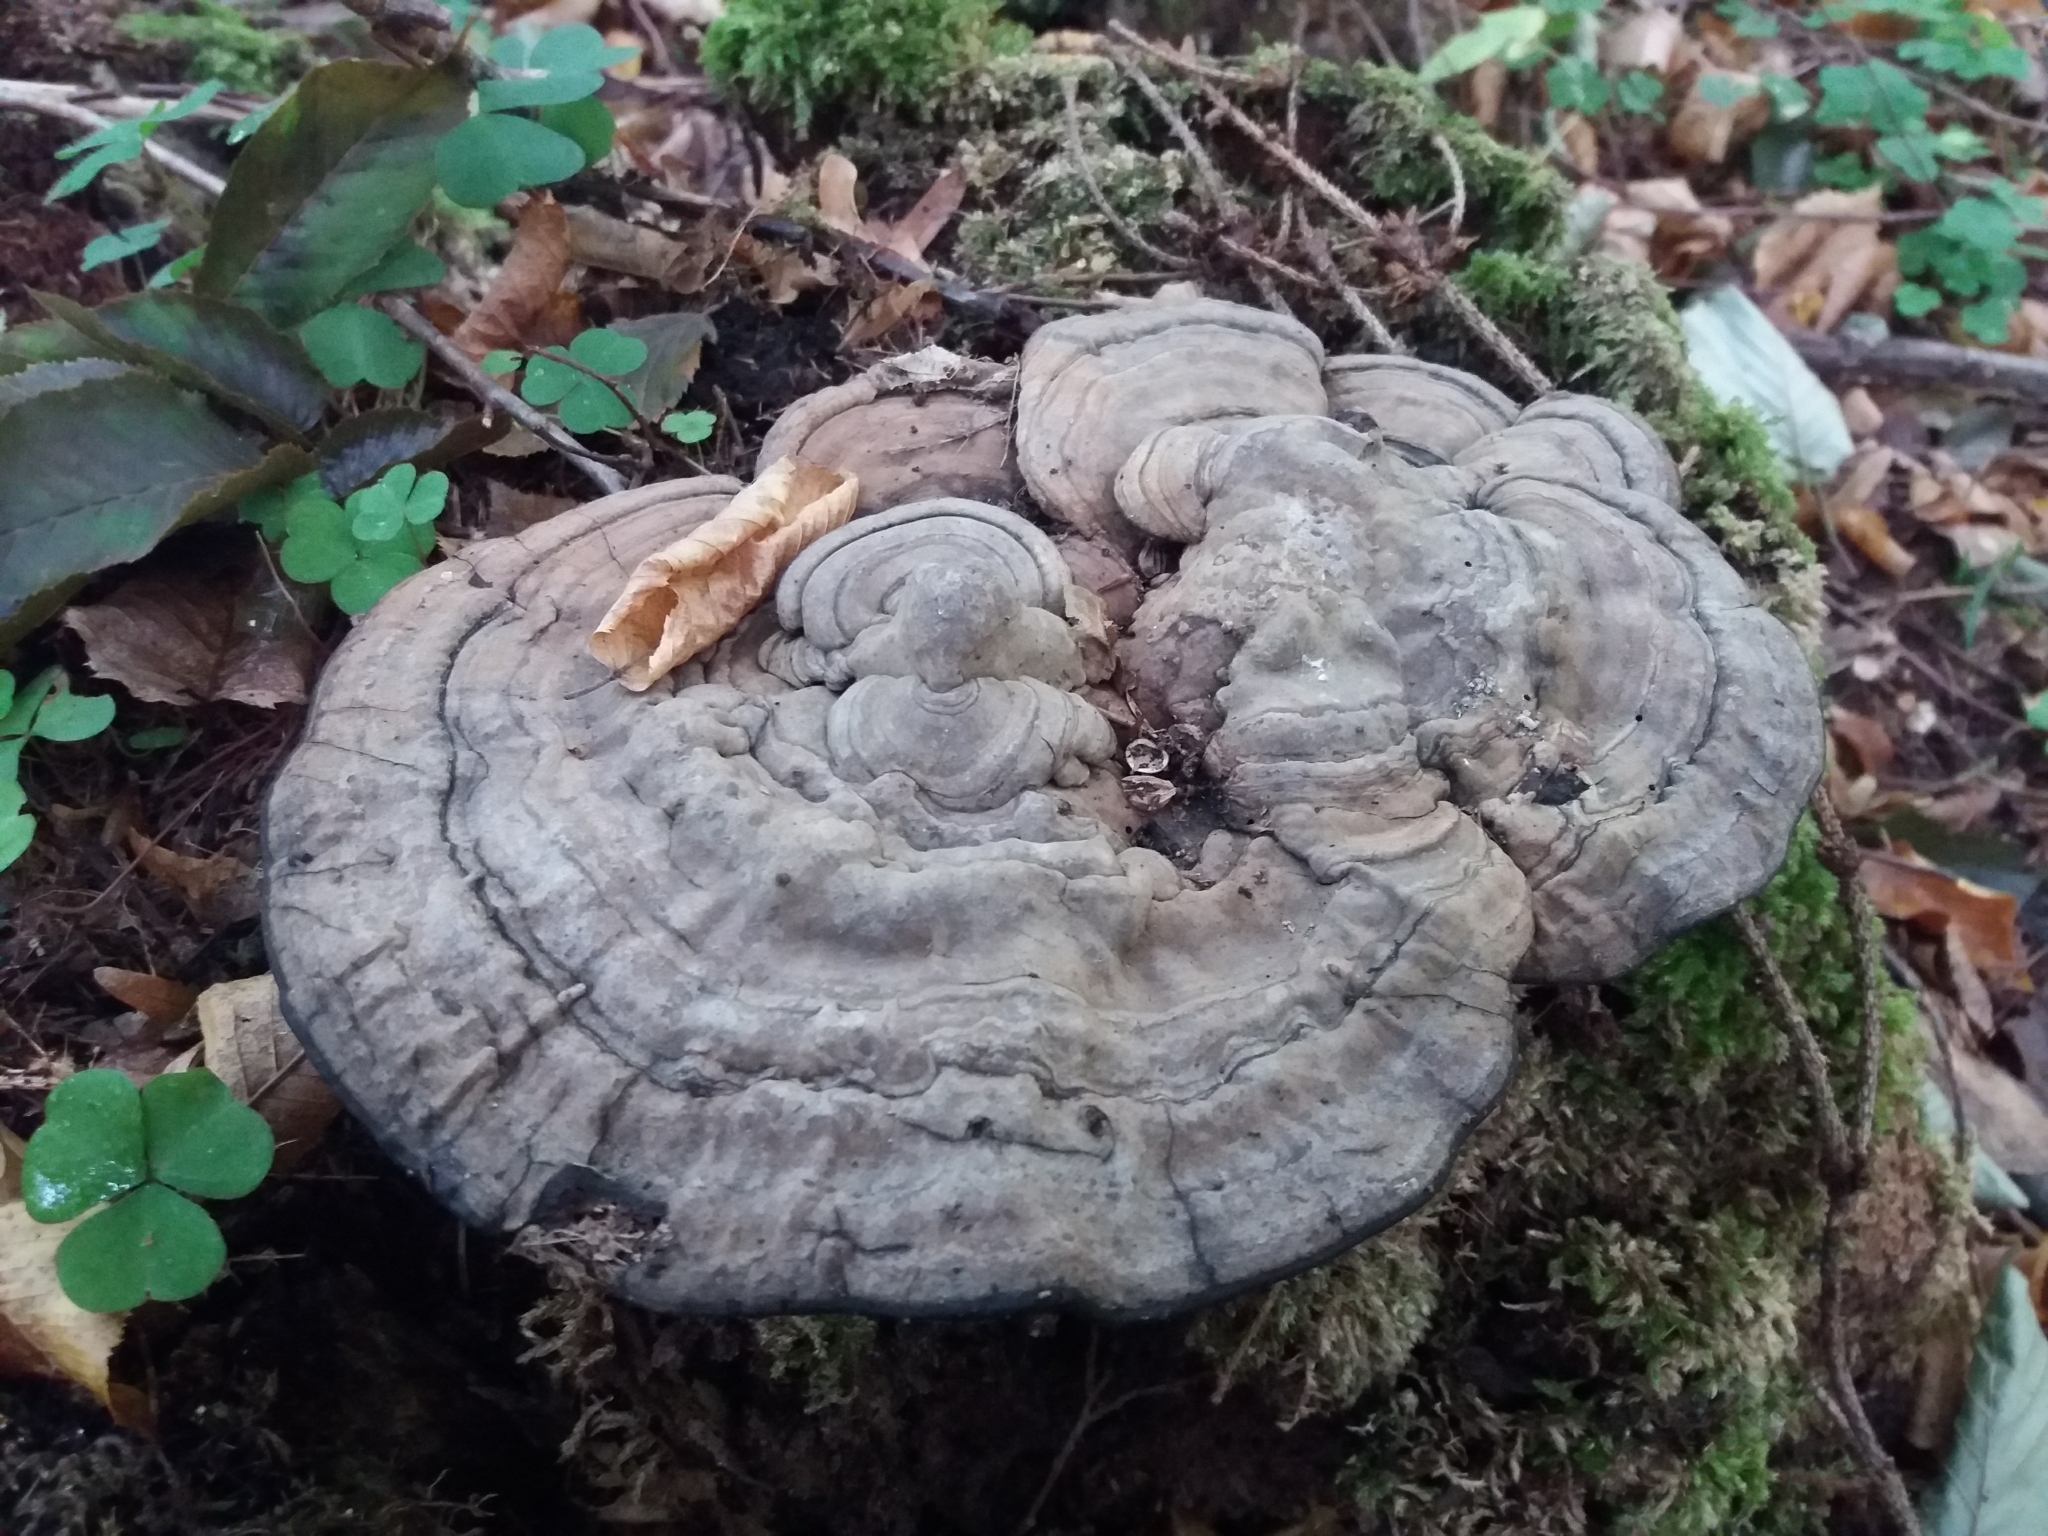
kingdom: Fungi
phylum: Basidiomycota
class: Agaricomycetes
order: Polyporales
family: Polyporaceae
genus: Ganoderma
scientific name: Ganoderma applanatum
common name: Artist's bracket
